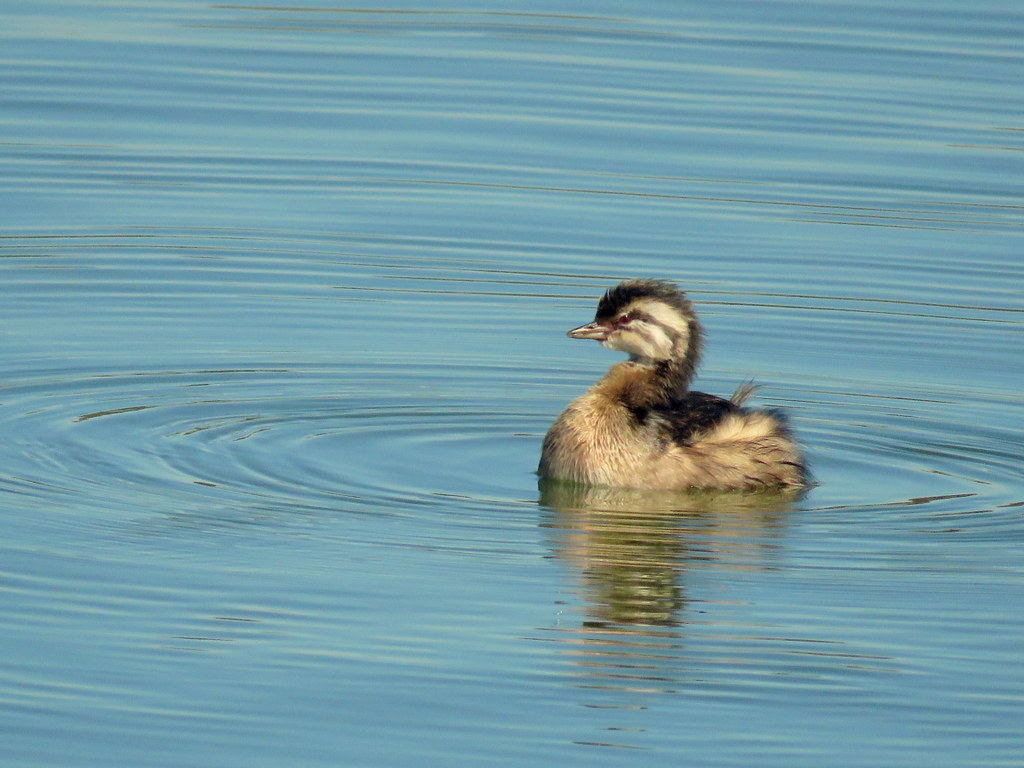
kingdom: Animalia
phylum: Chordata
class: Aves
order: Podicipediformes
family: Podicipedidae
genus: Rollandia
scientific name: Rollandia rolland
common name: White-tufted grebe
